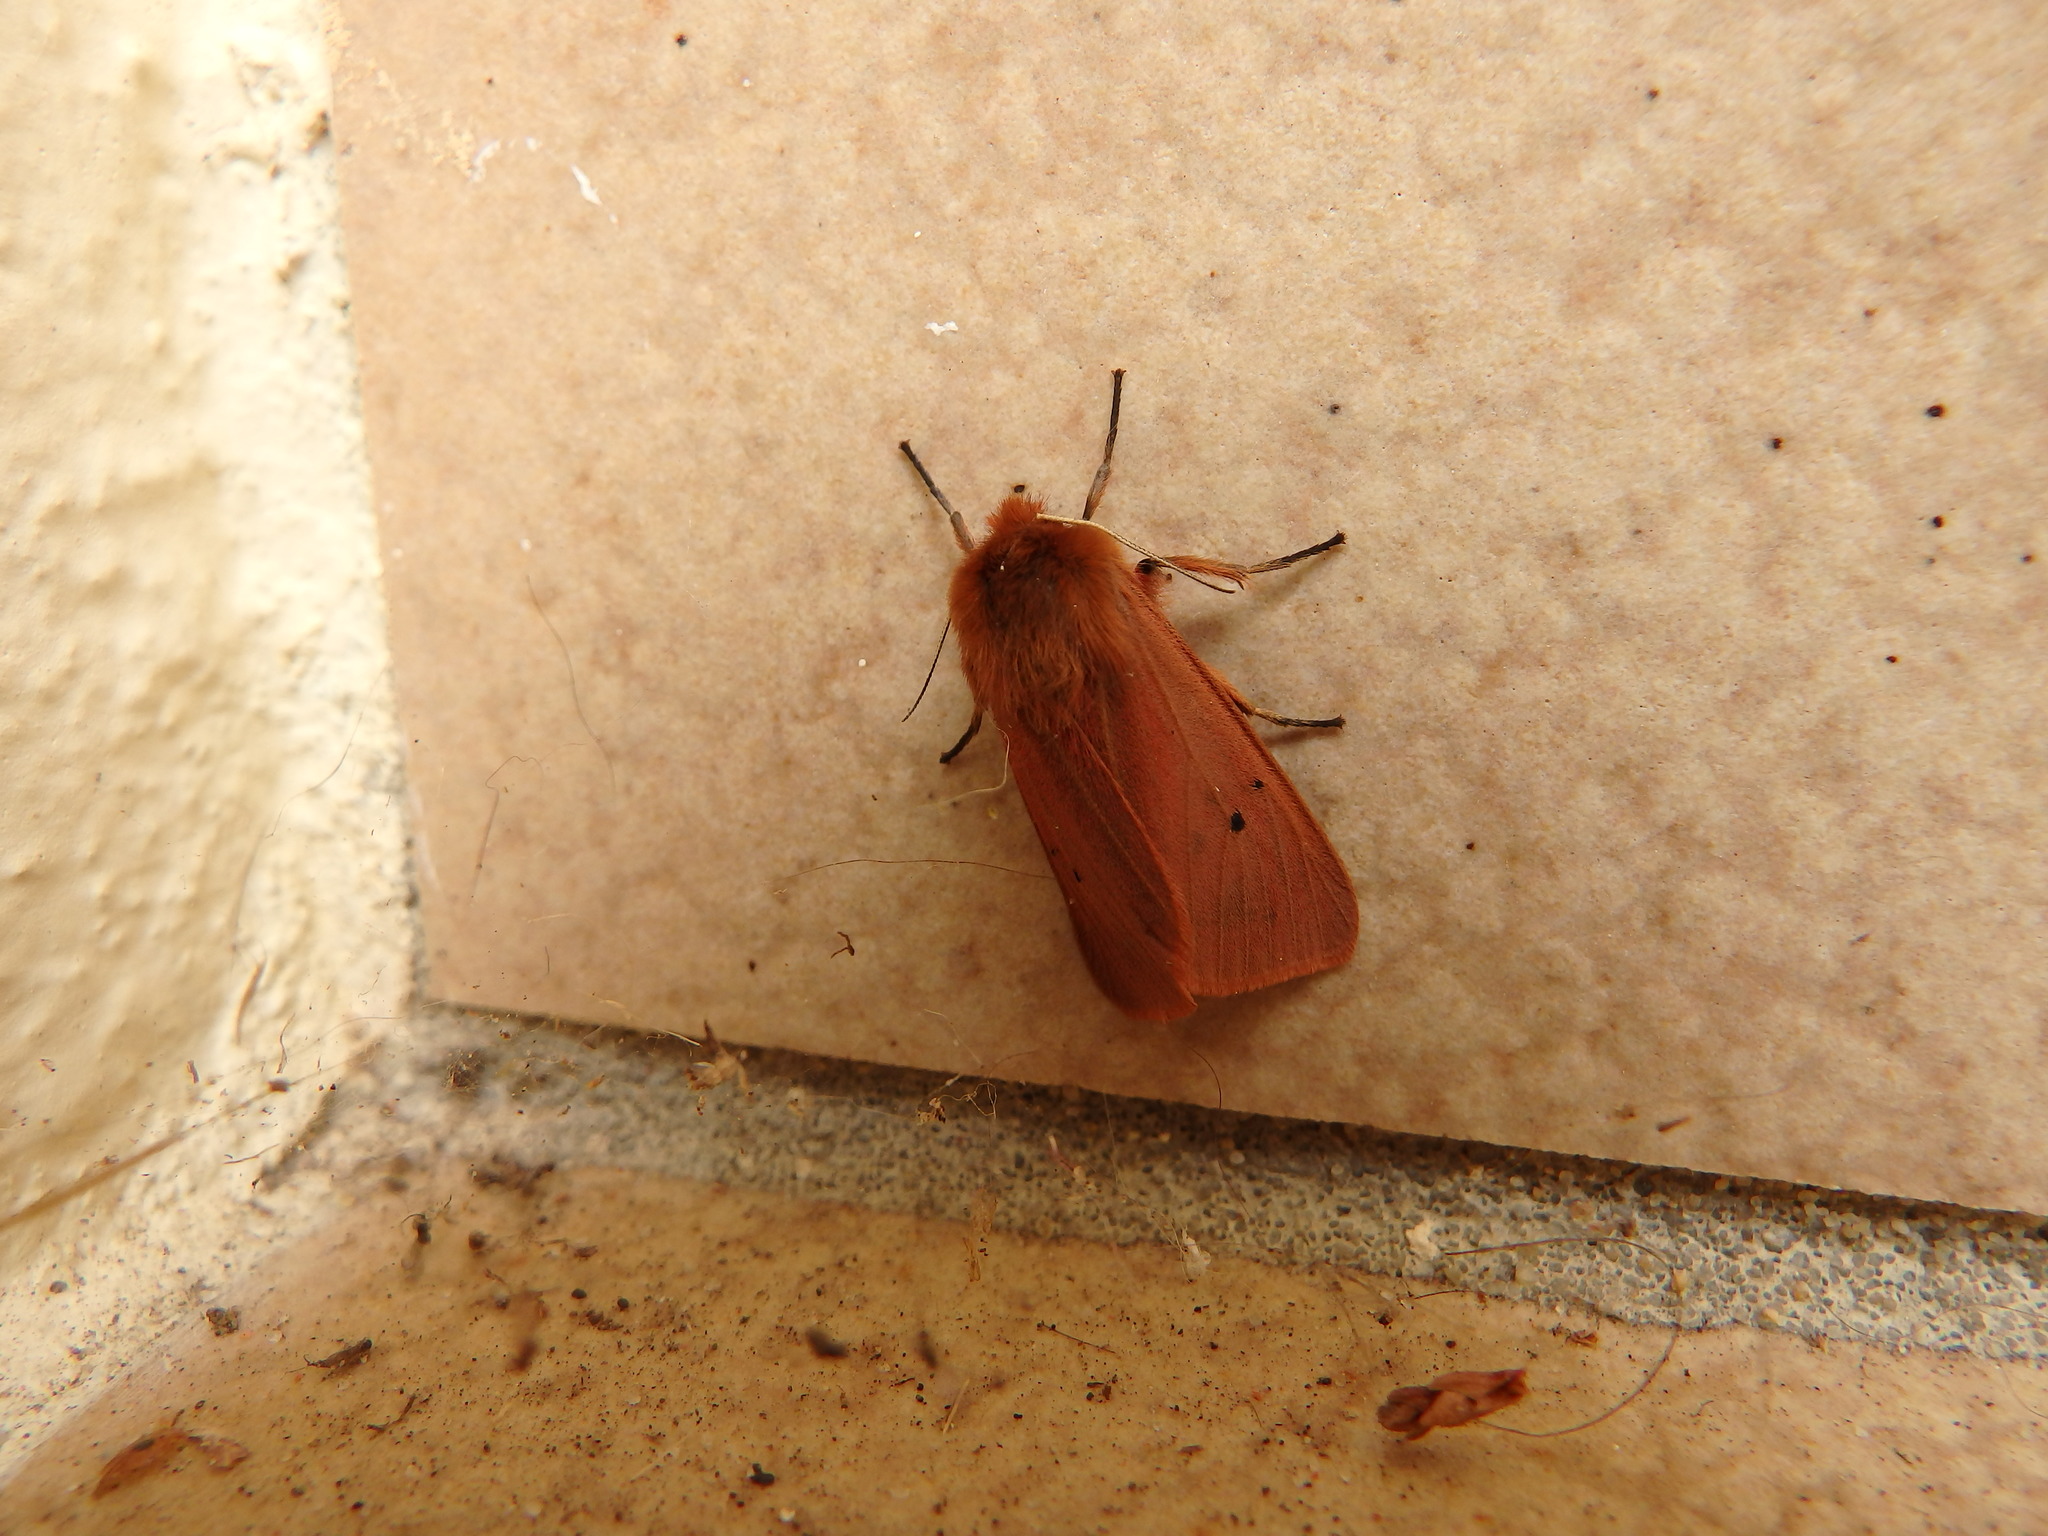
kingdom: Animalia
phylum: Arthropoda
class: Insecta
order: Lepidoptera
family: Erebidae
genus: Phragmatobia
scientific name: Phragmatobia fuliginosa
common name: Ruby tiger
